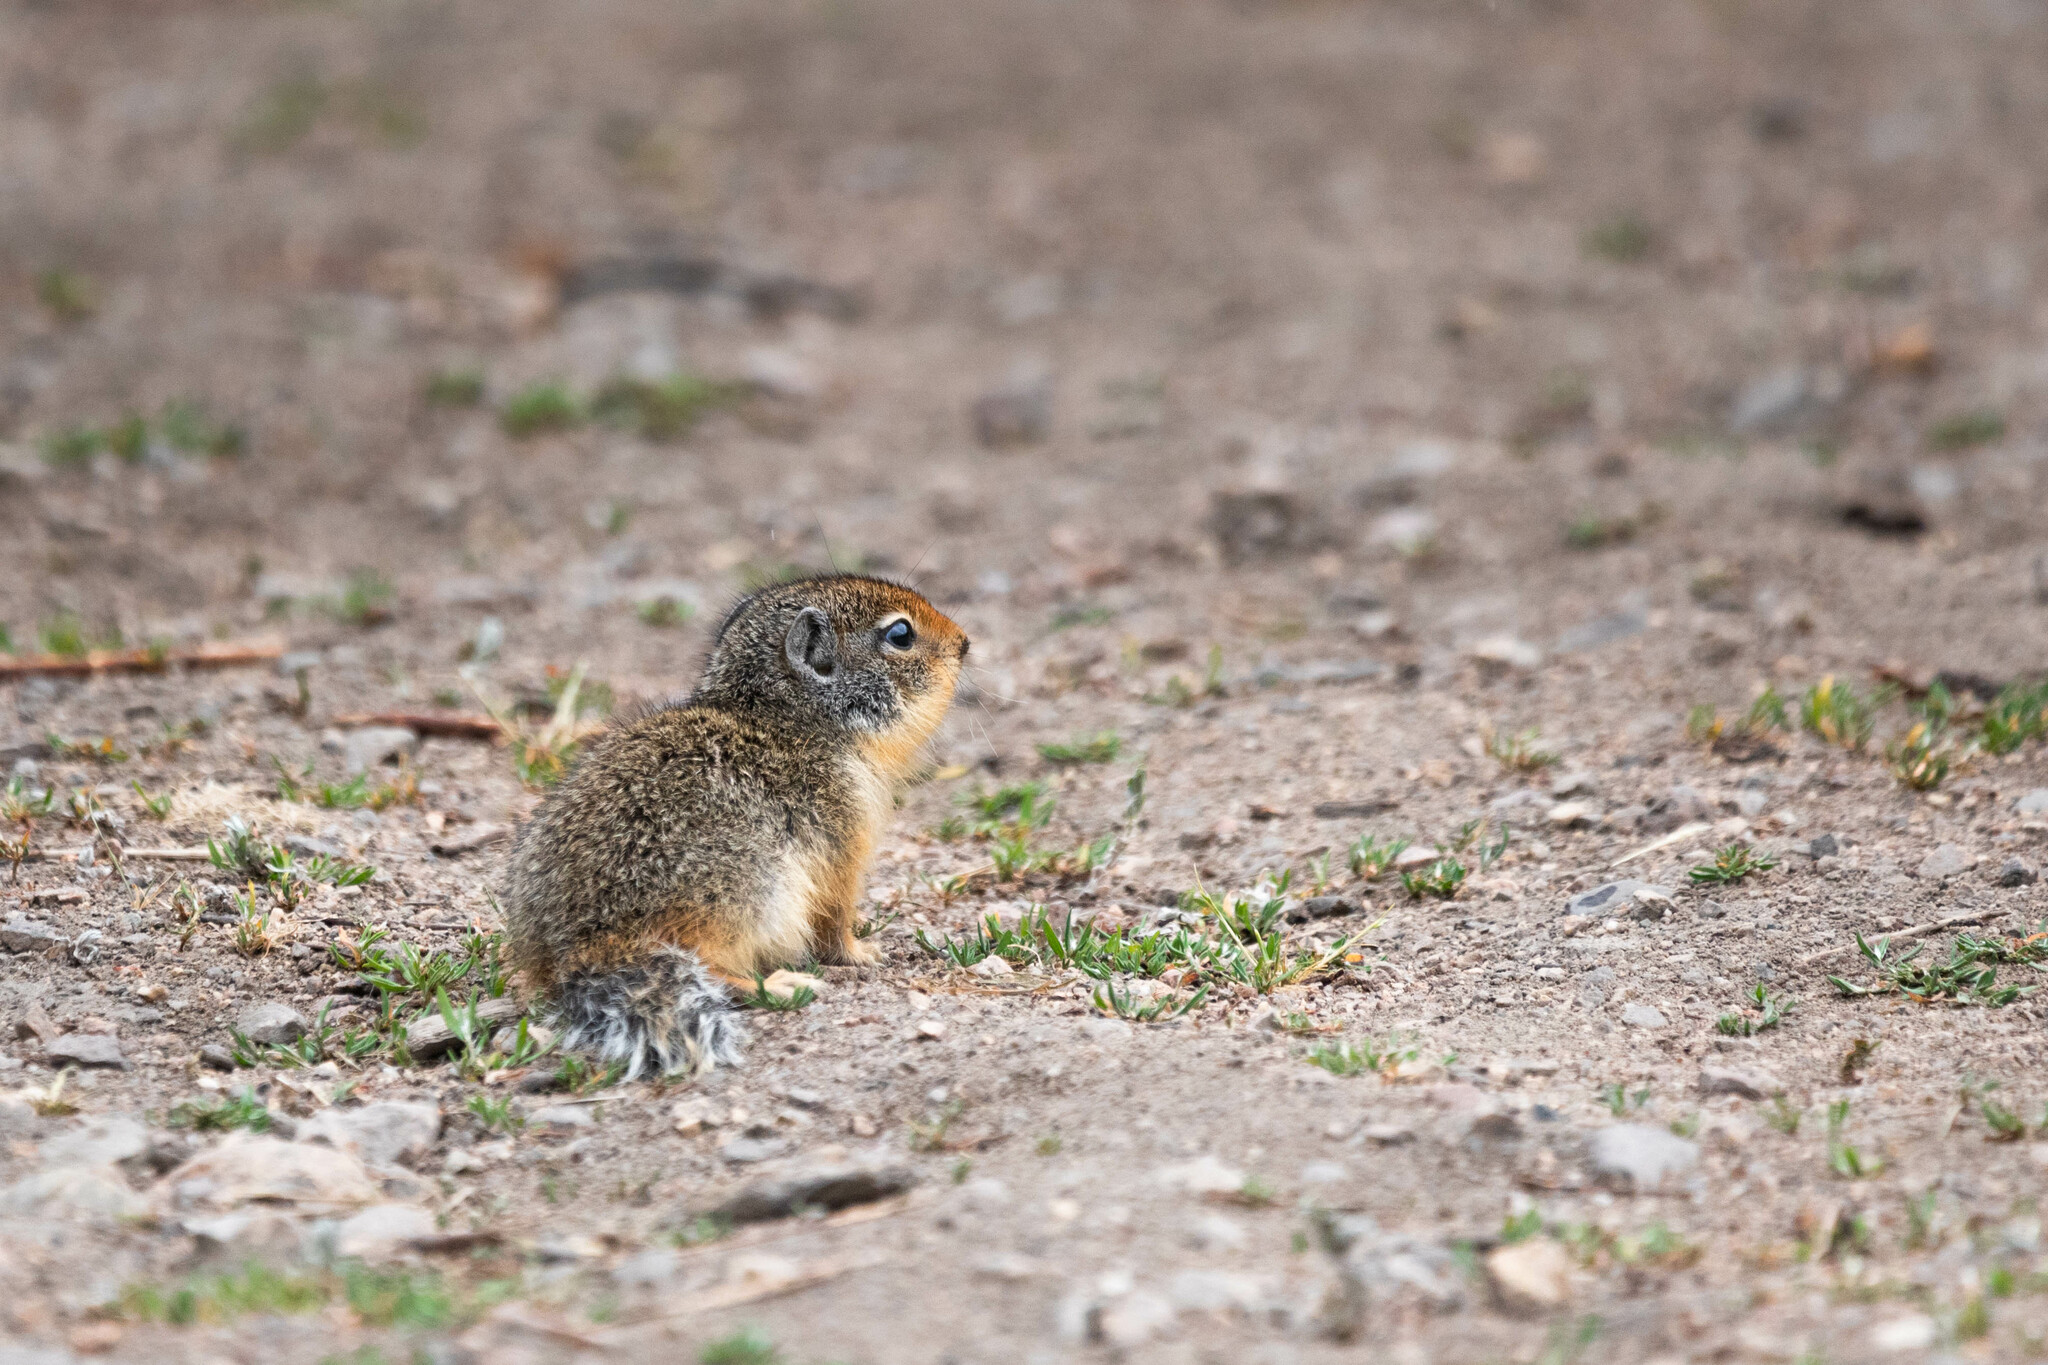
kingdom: Animalia
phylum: Chordata
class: Mammalia
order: Rodentia
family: Sciuridae
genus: Urocitellus
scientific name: Urocitellus columbianus
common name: Columbian ground squirrel
